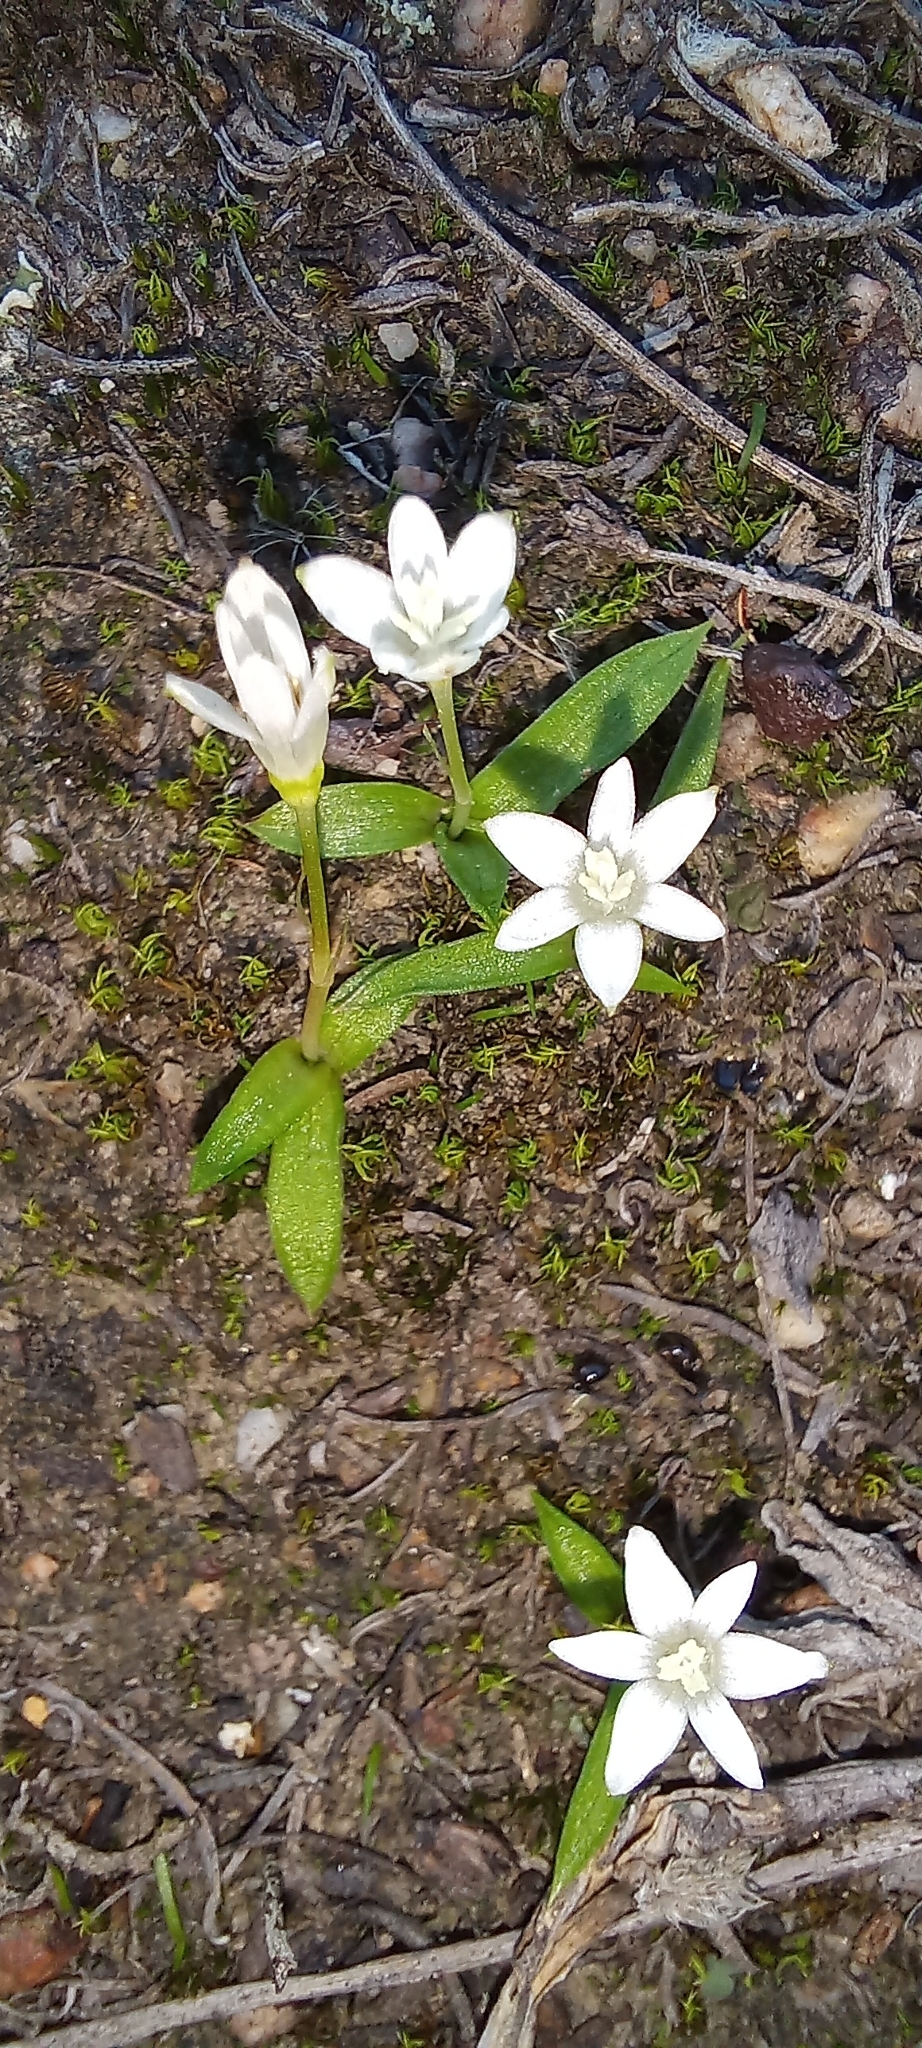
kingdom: Plantae
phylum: Tracheophyta
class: Liliopsida
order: Asparagales
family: Hypoxidaceae
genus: Pauridia
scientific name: Pauridia minuta
